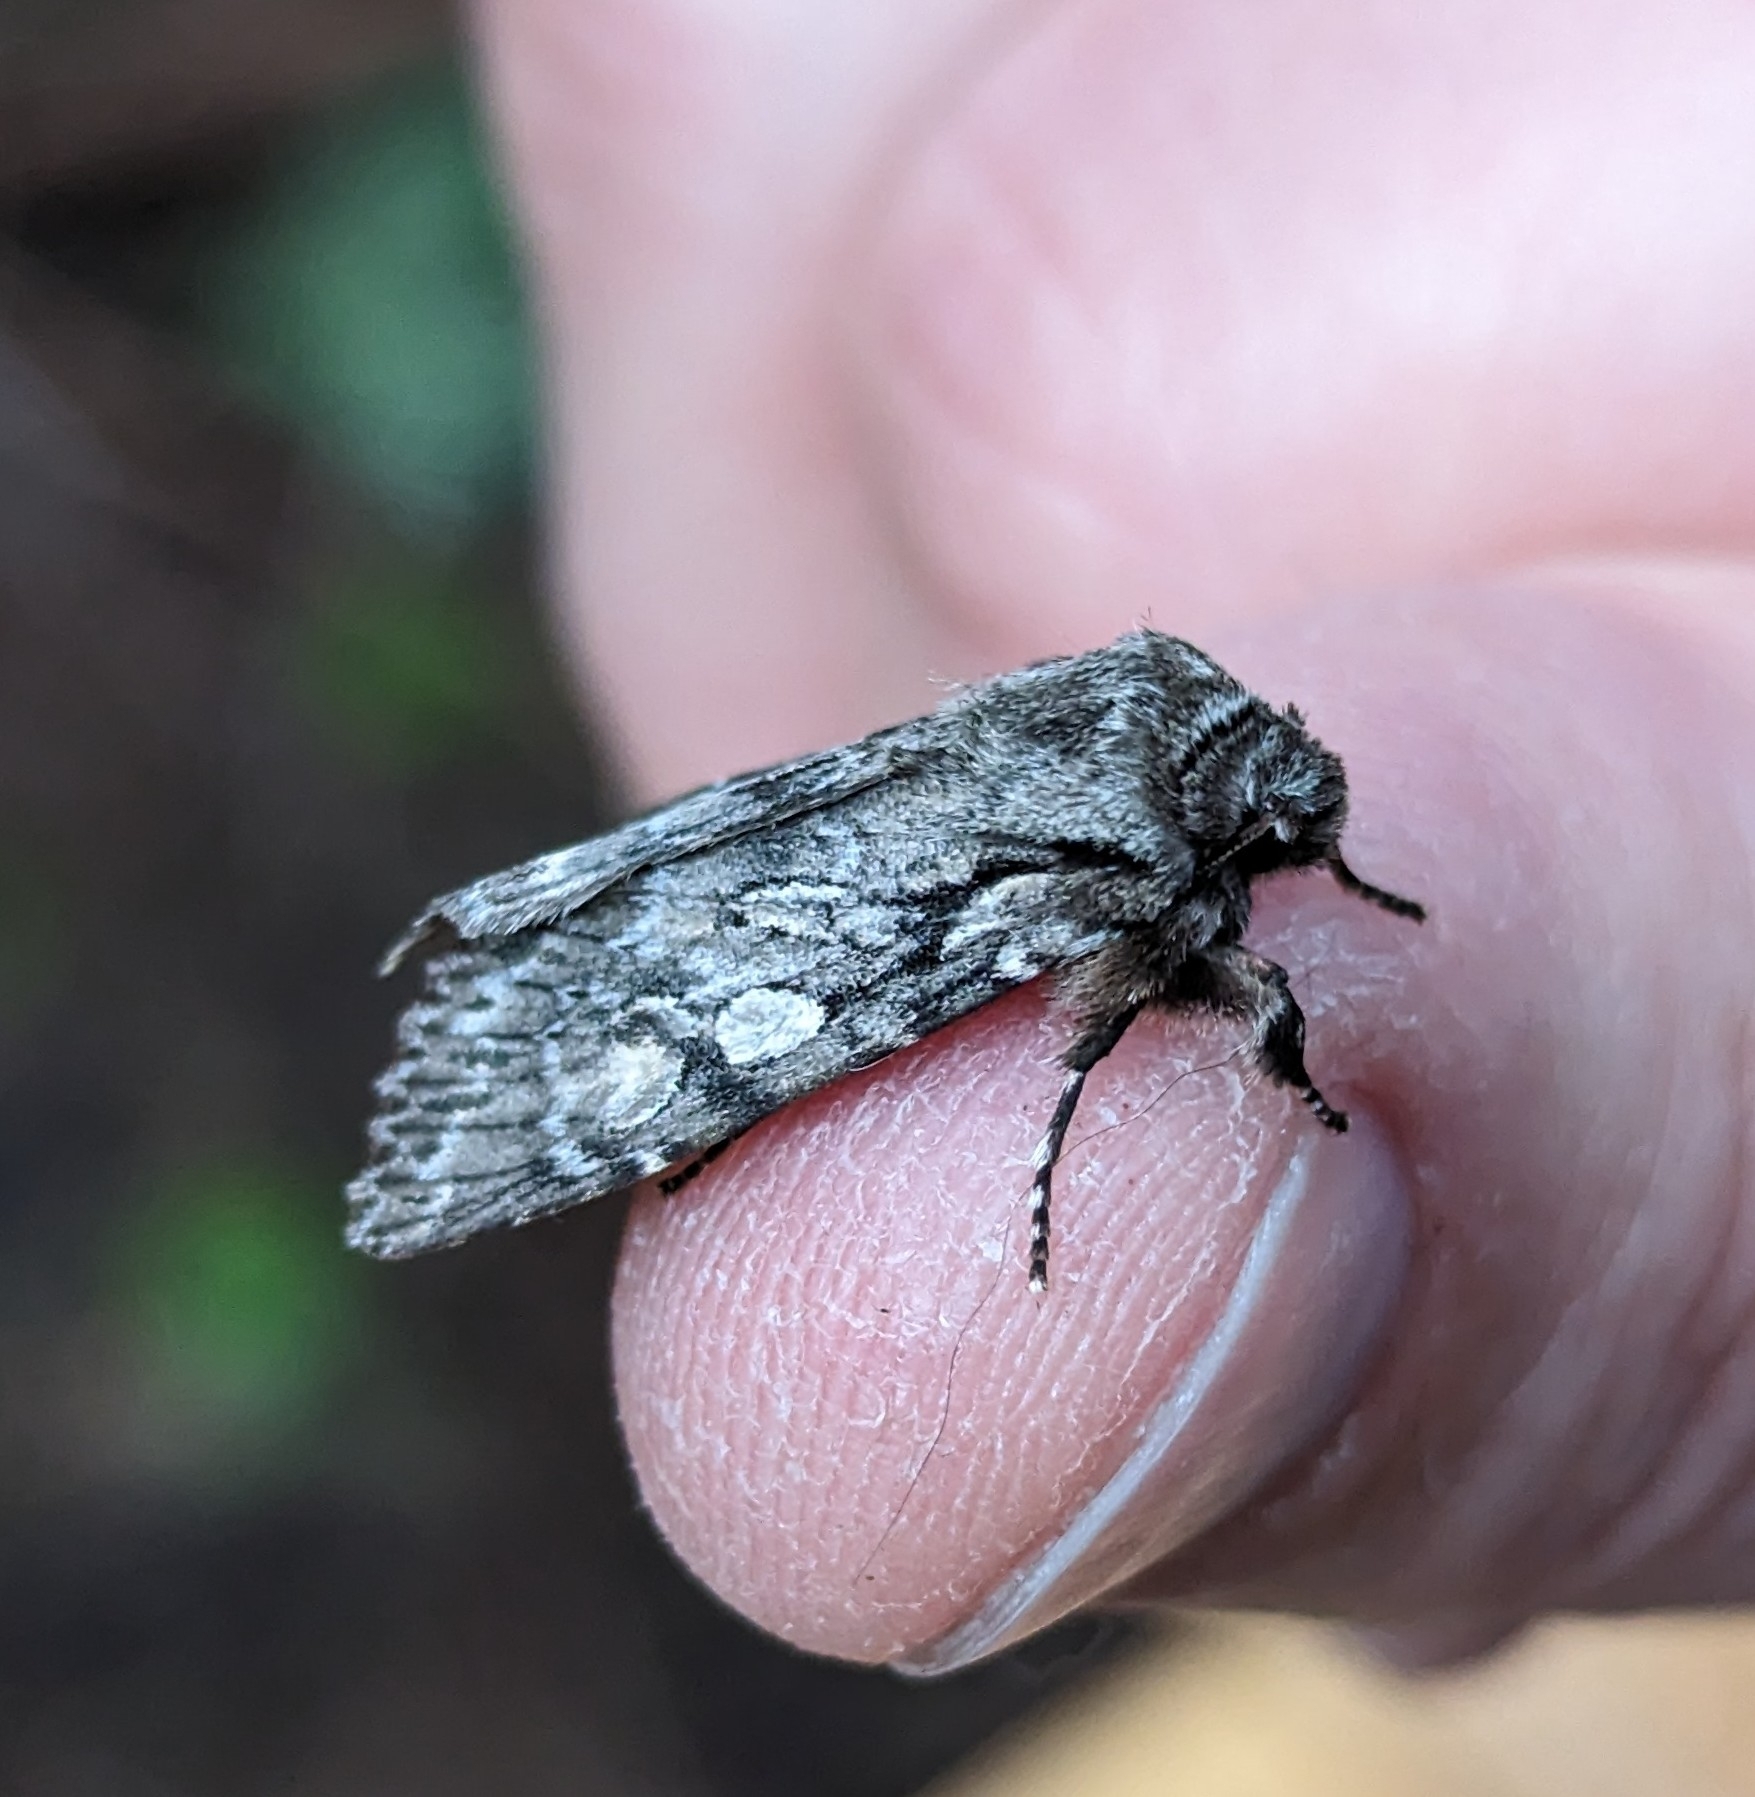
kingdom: Animalia
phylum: Arthropoda
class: Insecta
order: Lepidoptera
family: Noctuidae
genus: Egira
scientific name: Egira simplex
